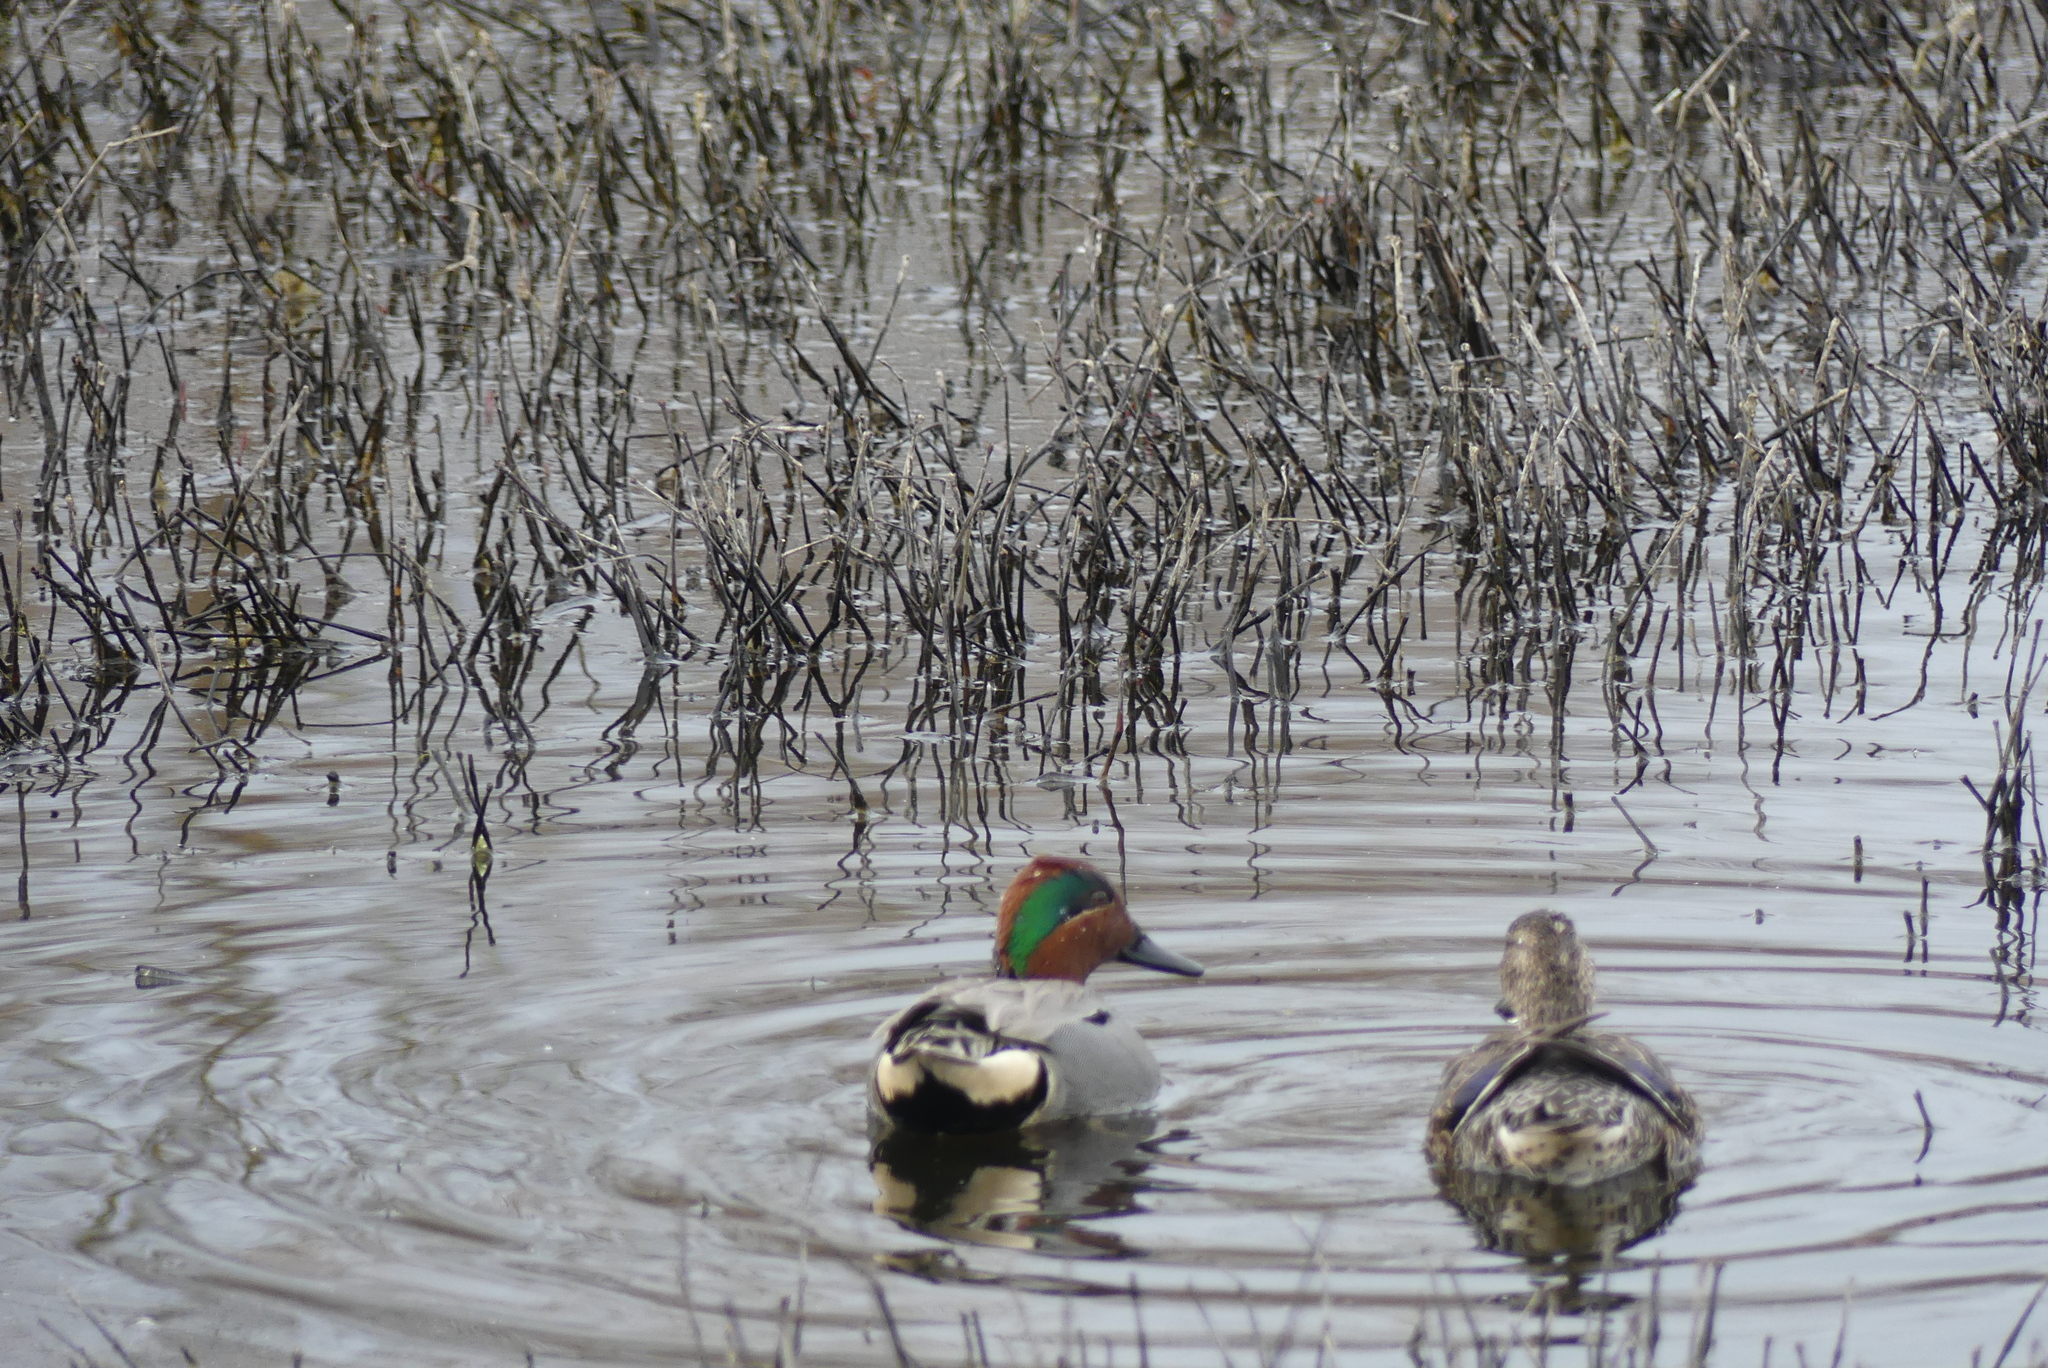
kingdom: Animalia
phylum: Chordata
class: Aves
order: Anseriformes
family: Anatidae
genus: Anas
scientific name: Anas crecca
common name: Eurasian teal
